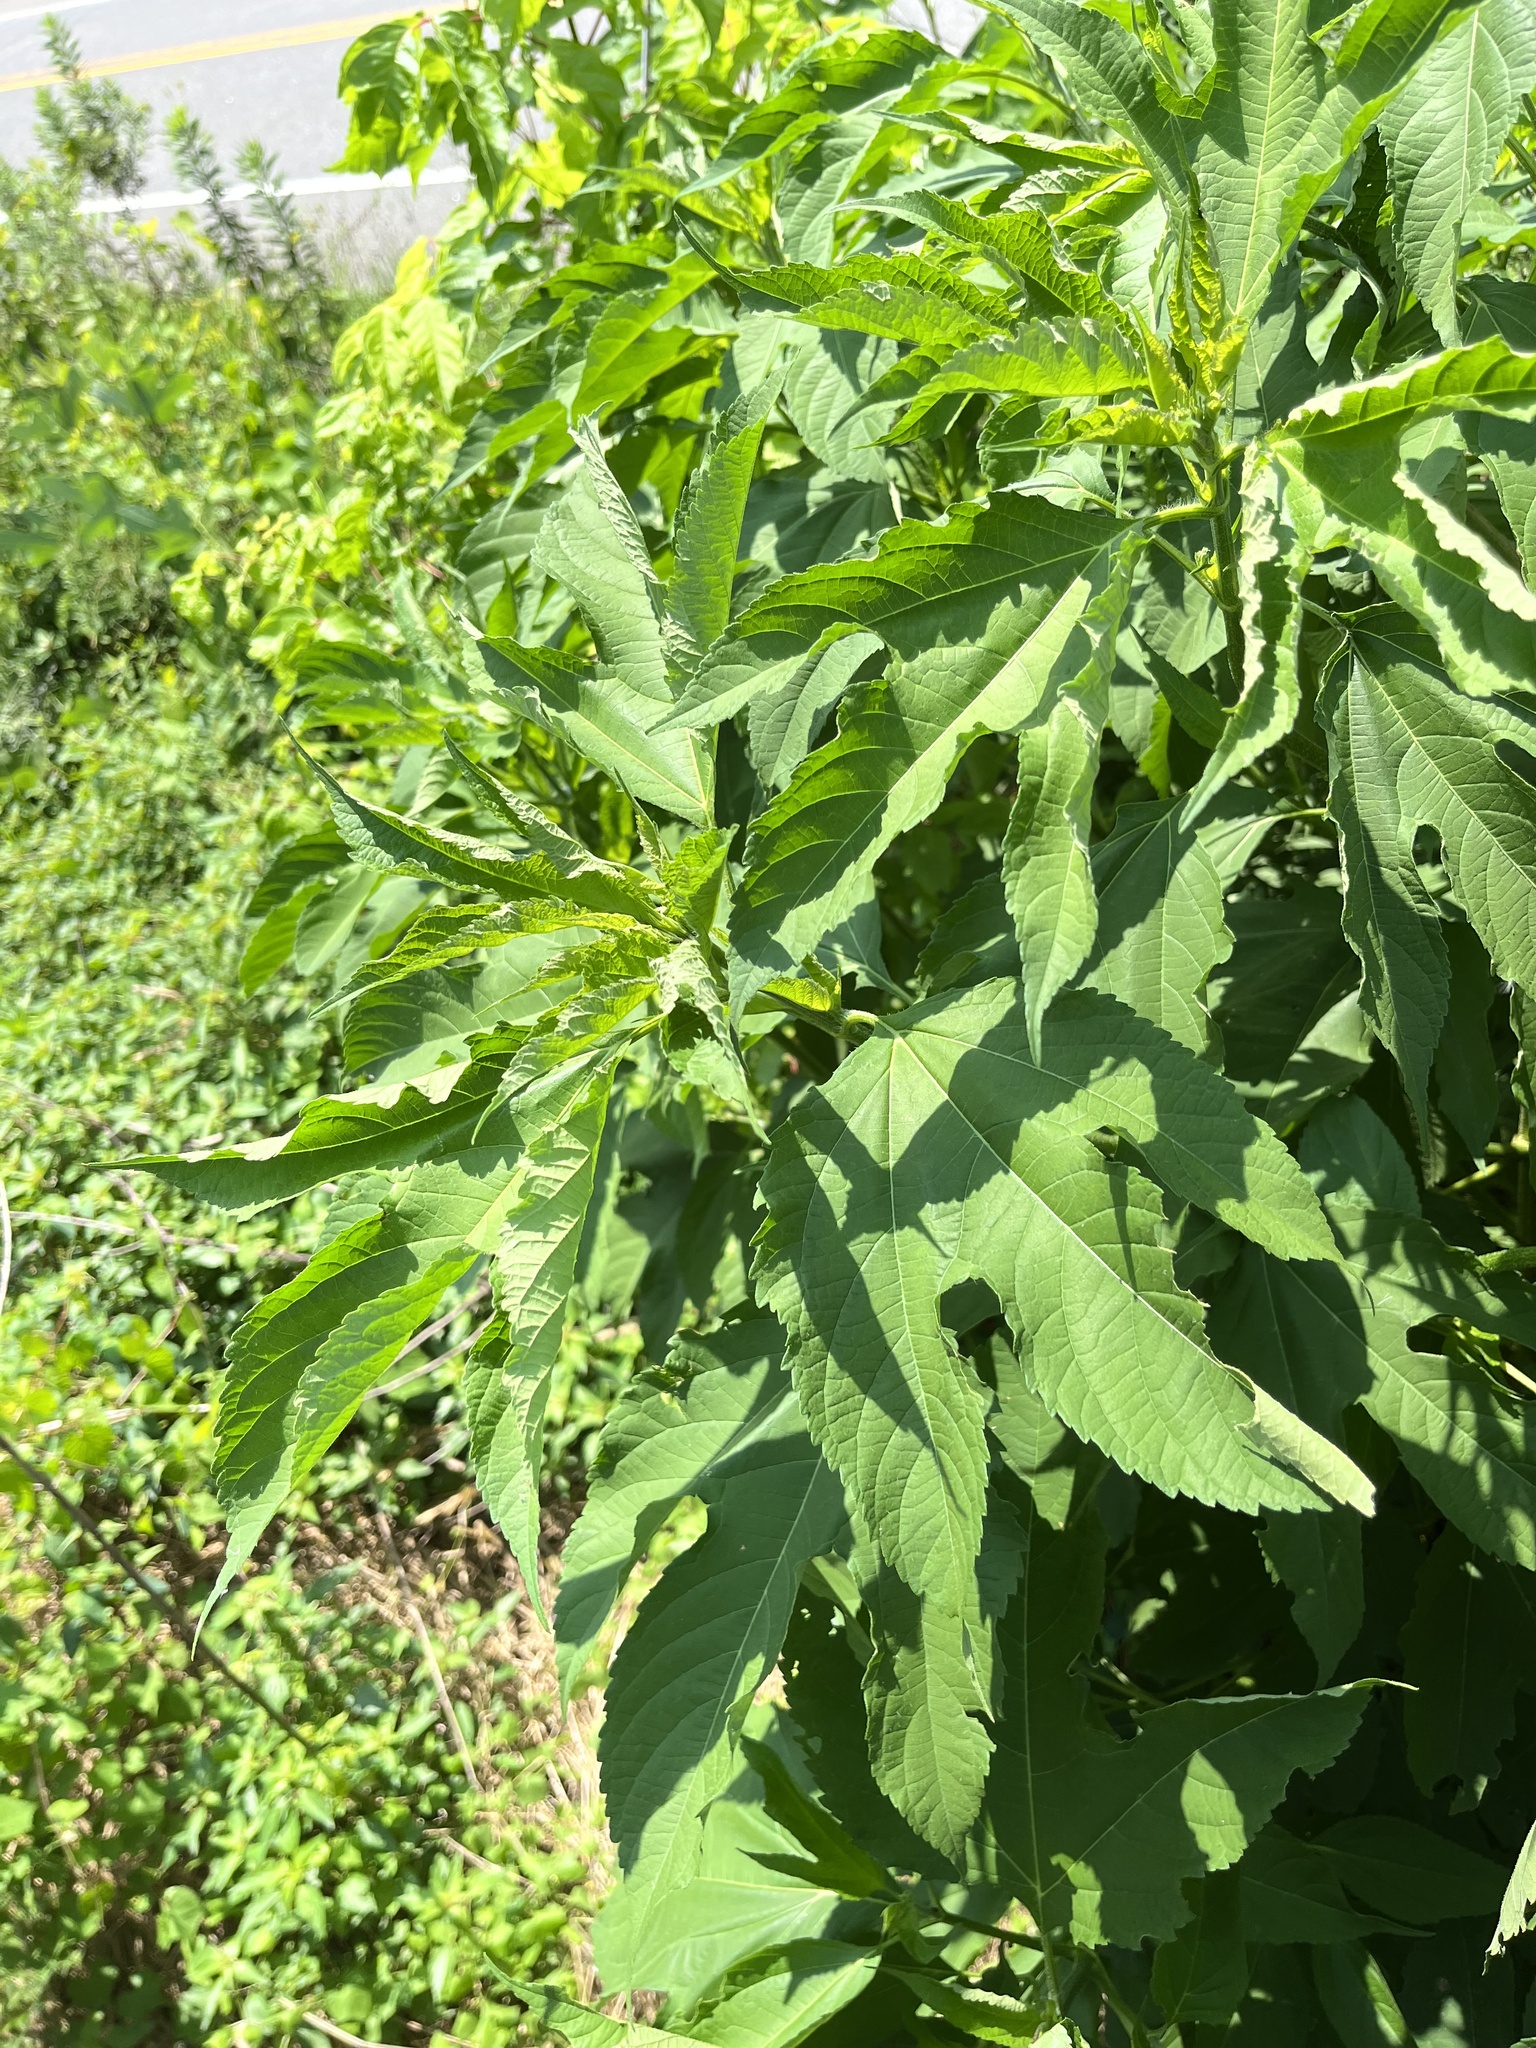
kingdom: Plantae
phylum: Tracheophyta
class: Magnoliopsida
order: Asterales
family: Asteraceae
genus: Ambrosia
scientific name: Ambrosia trifida
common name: Giant ragweed
